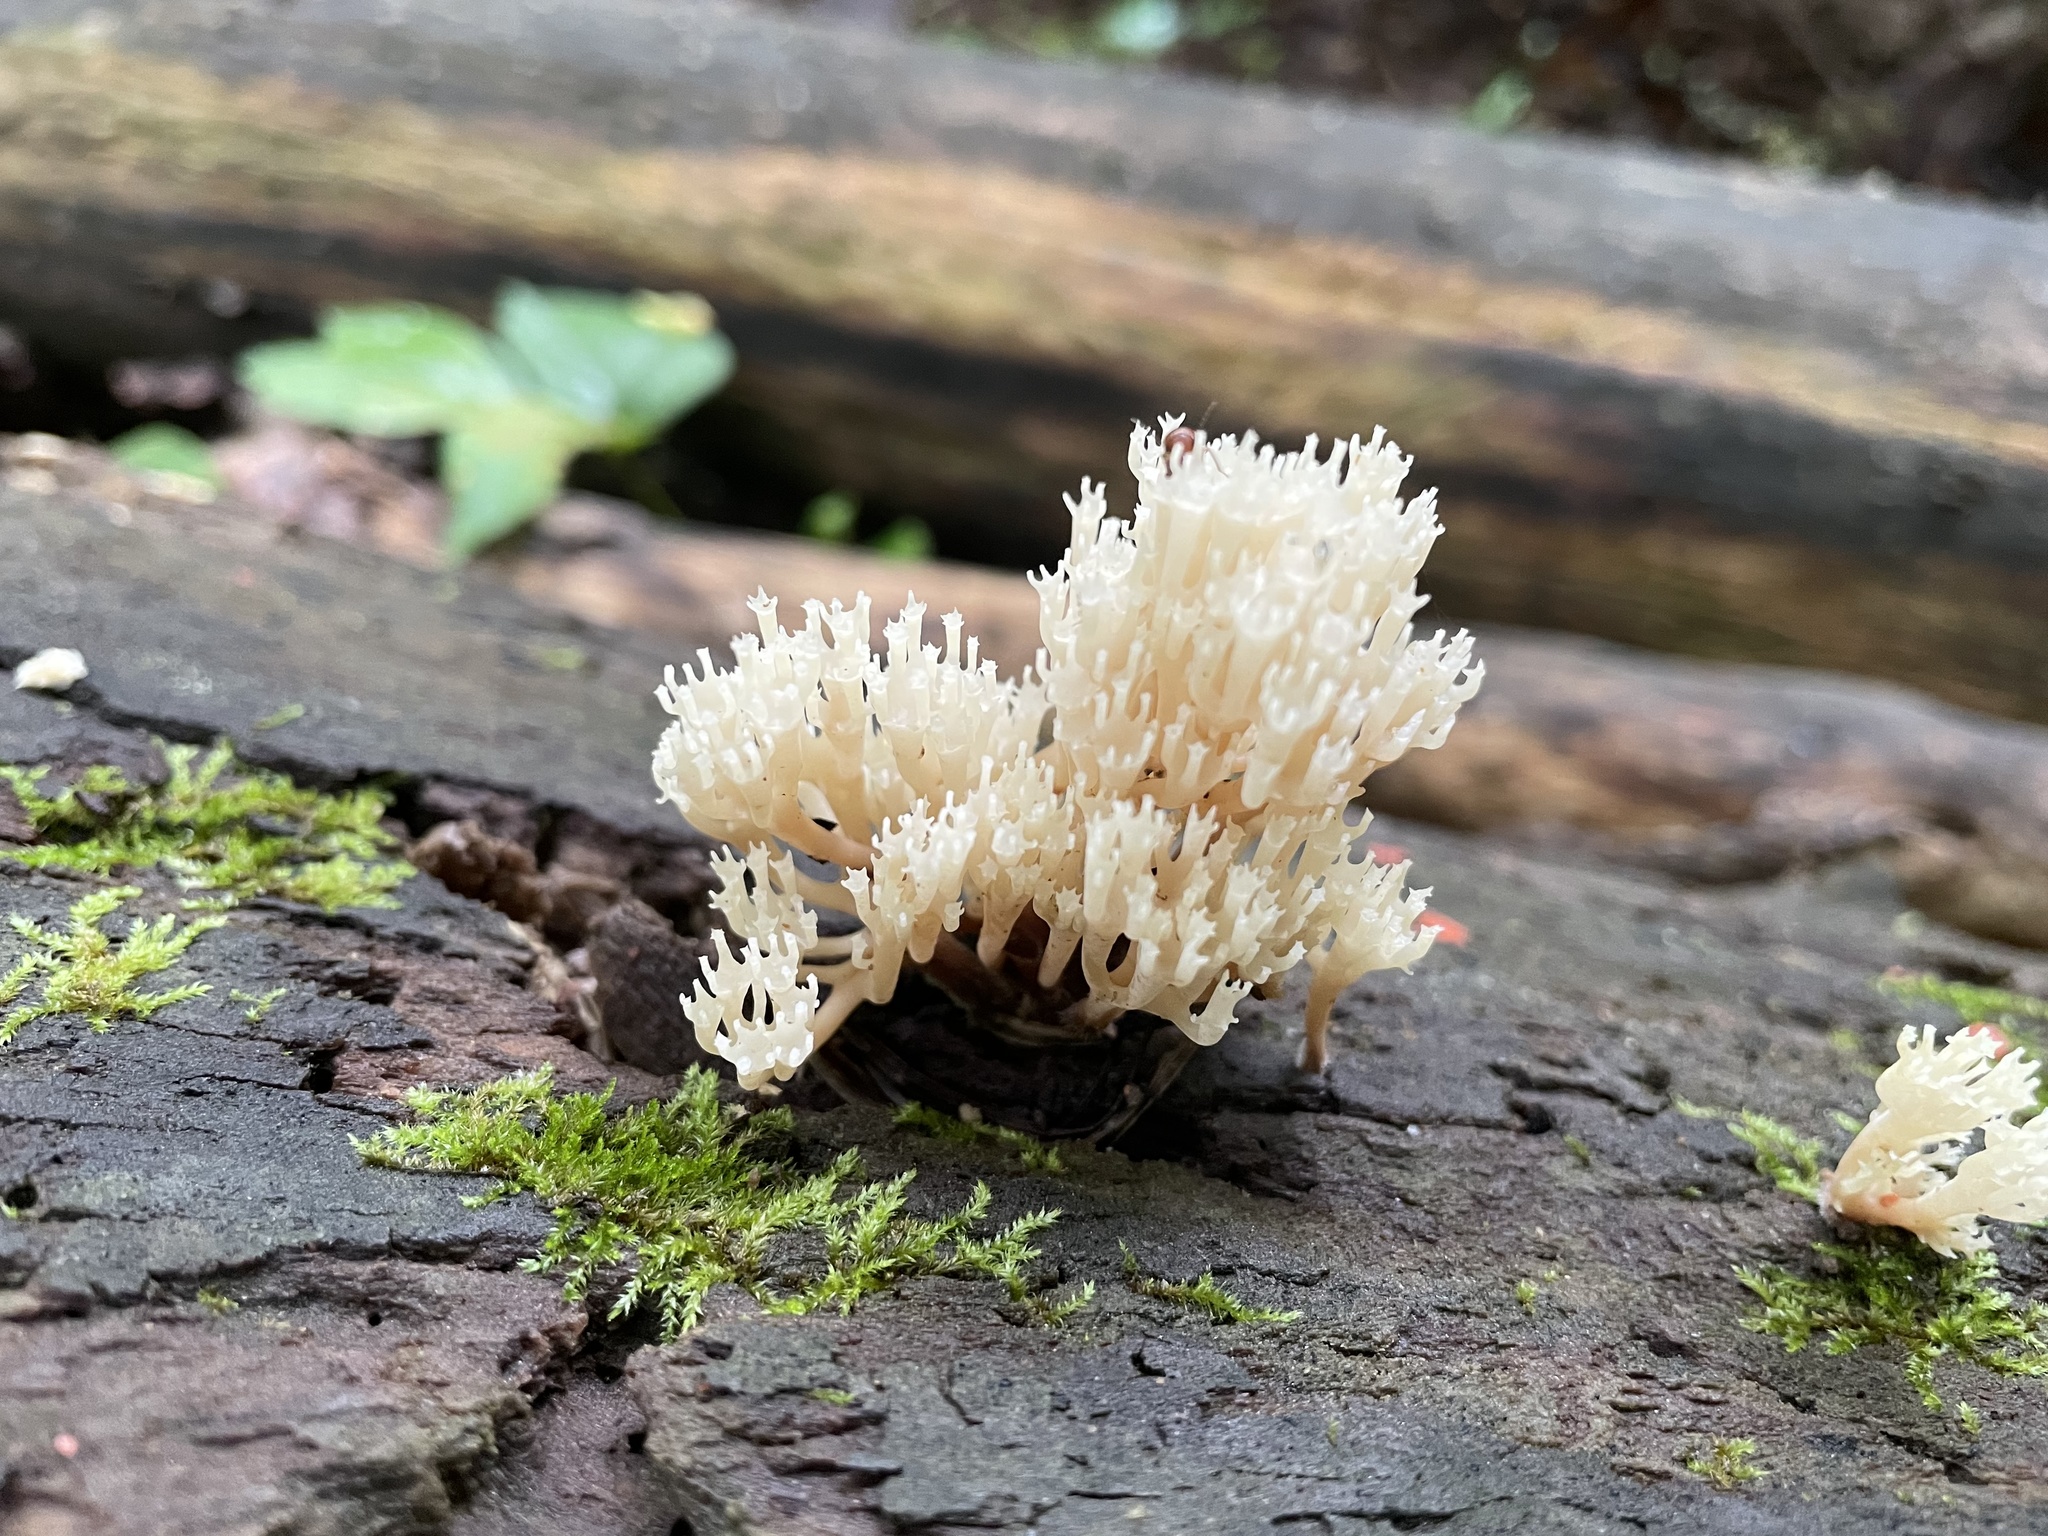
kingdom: Fungi
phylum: Basidiomycota
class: Agaricomycetes
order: Russulales
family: Auriscalpiaceae
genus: Artomyces
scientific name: Artomyces pyxidatus
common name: Crown-tipped coral fungus
